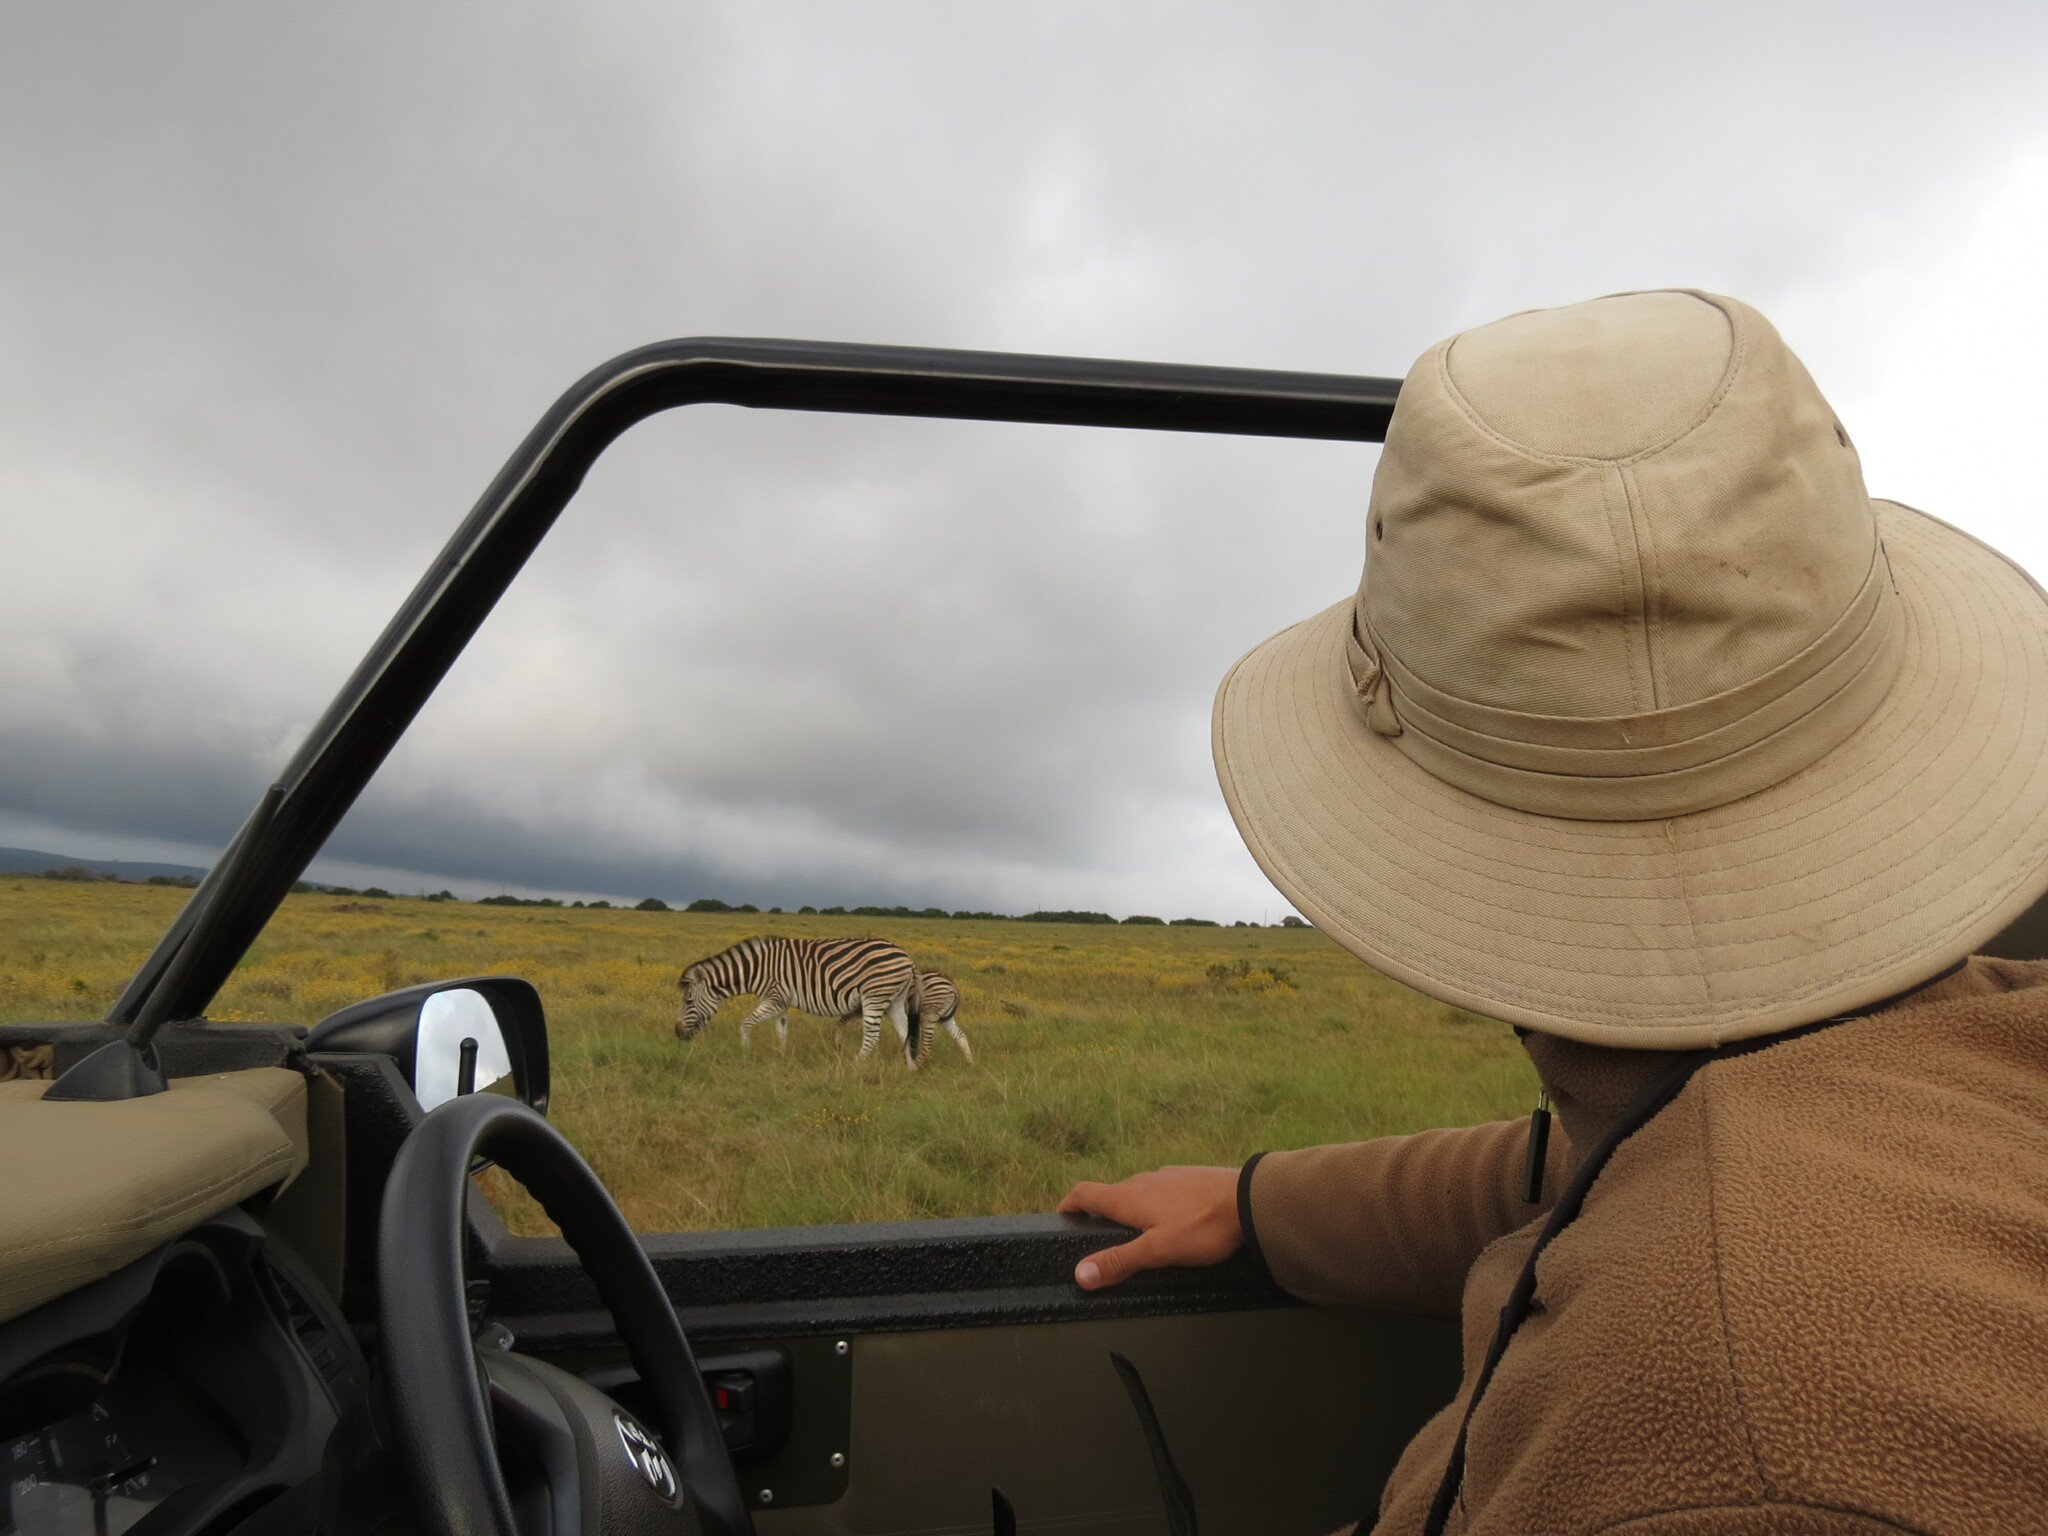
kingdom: Animalia
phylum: Chordata
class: Mammalia
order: Perissodactyla
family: Equidae
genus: Equus
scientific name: Equus quagga
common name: Plains zebra
